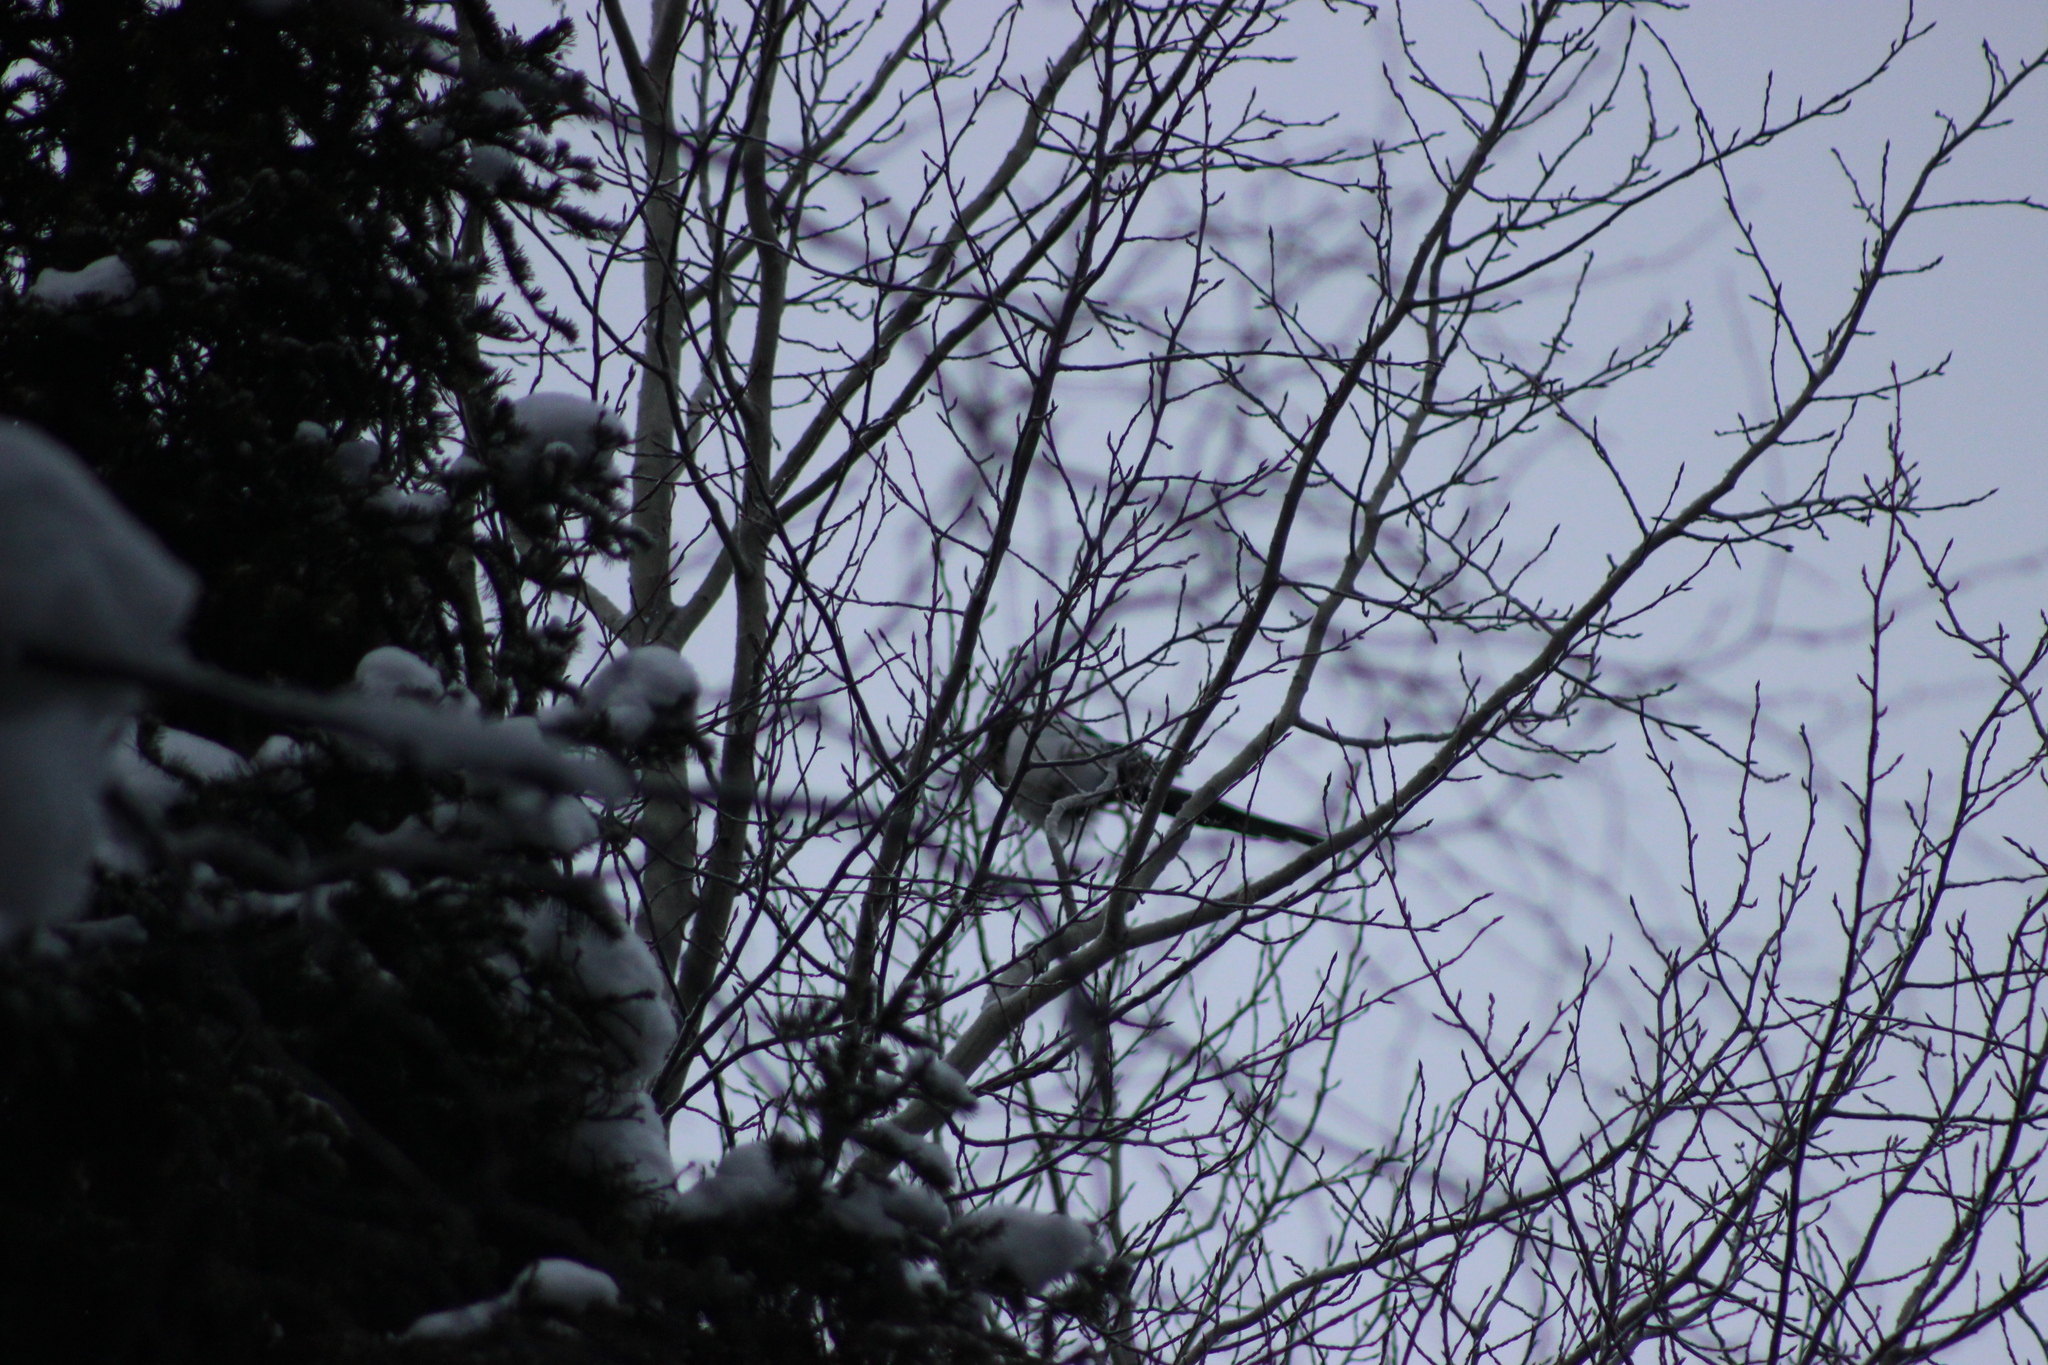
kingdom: Animalia
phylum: Chordata
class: Aves
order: Passeriformes
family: Corvidae
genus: Pica
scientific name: Pica pica
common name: Eurasian magpie
